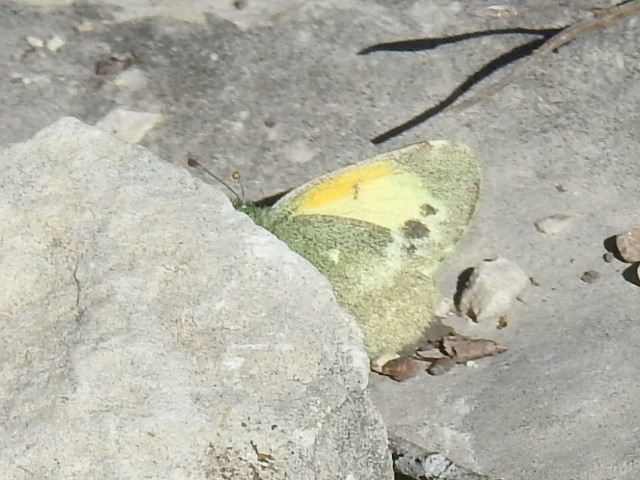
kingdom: Animalia
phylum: Arthropoda
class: Insecta
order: Lepidoptera
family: Pieridae
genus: Nathalis
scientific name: Nathalis iole
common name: Dainty sulphur
